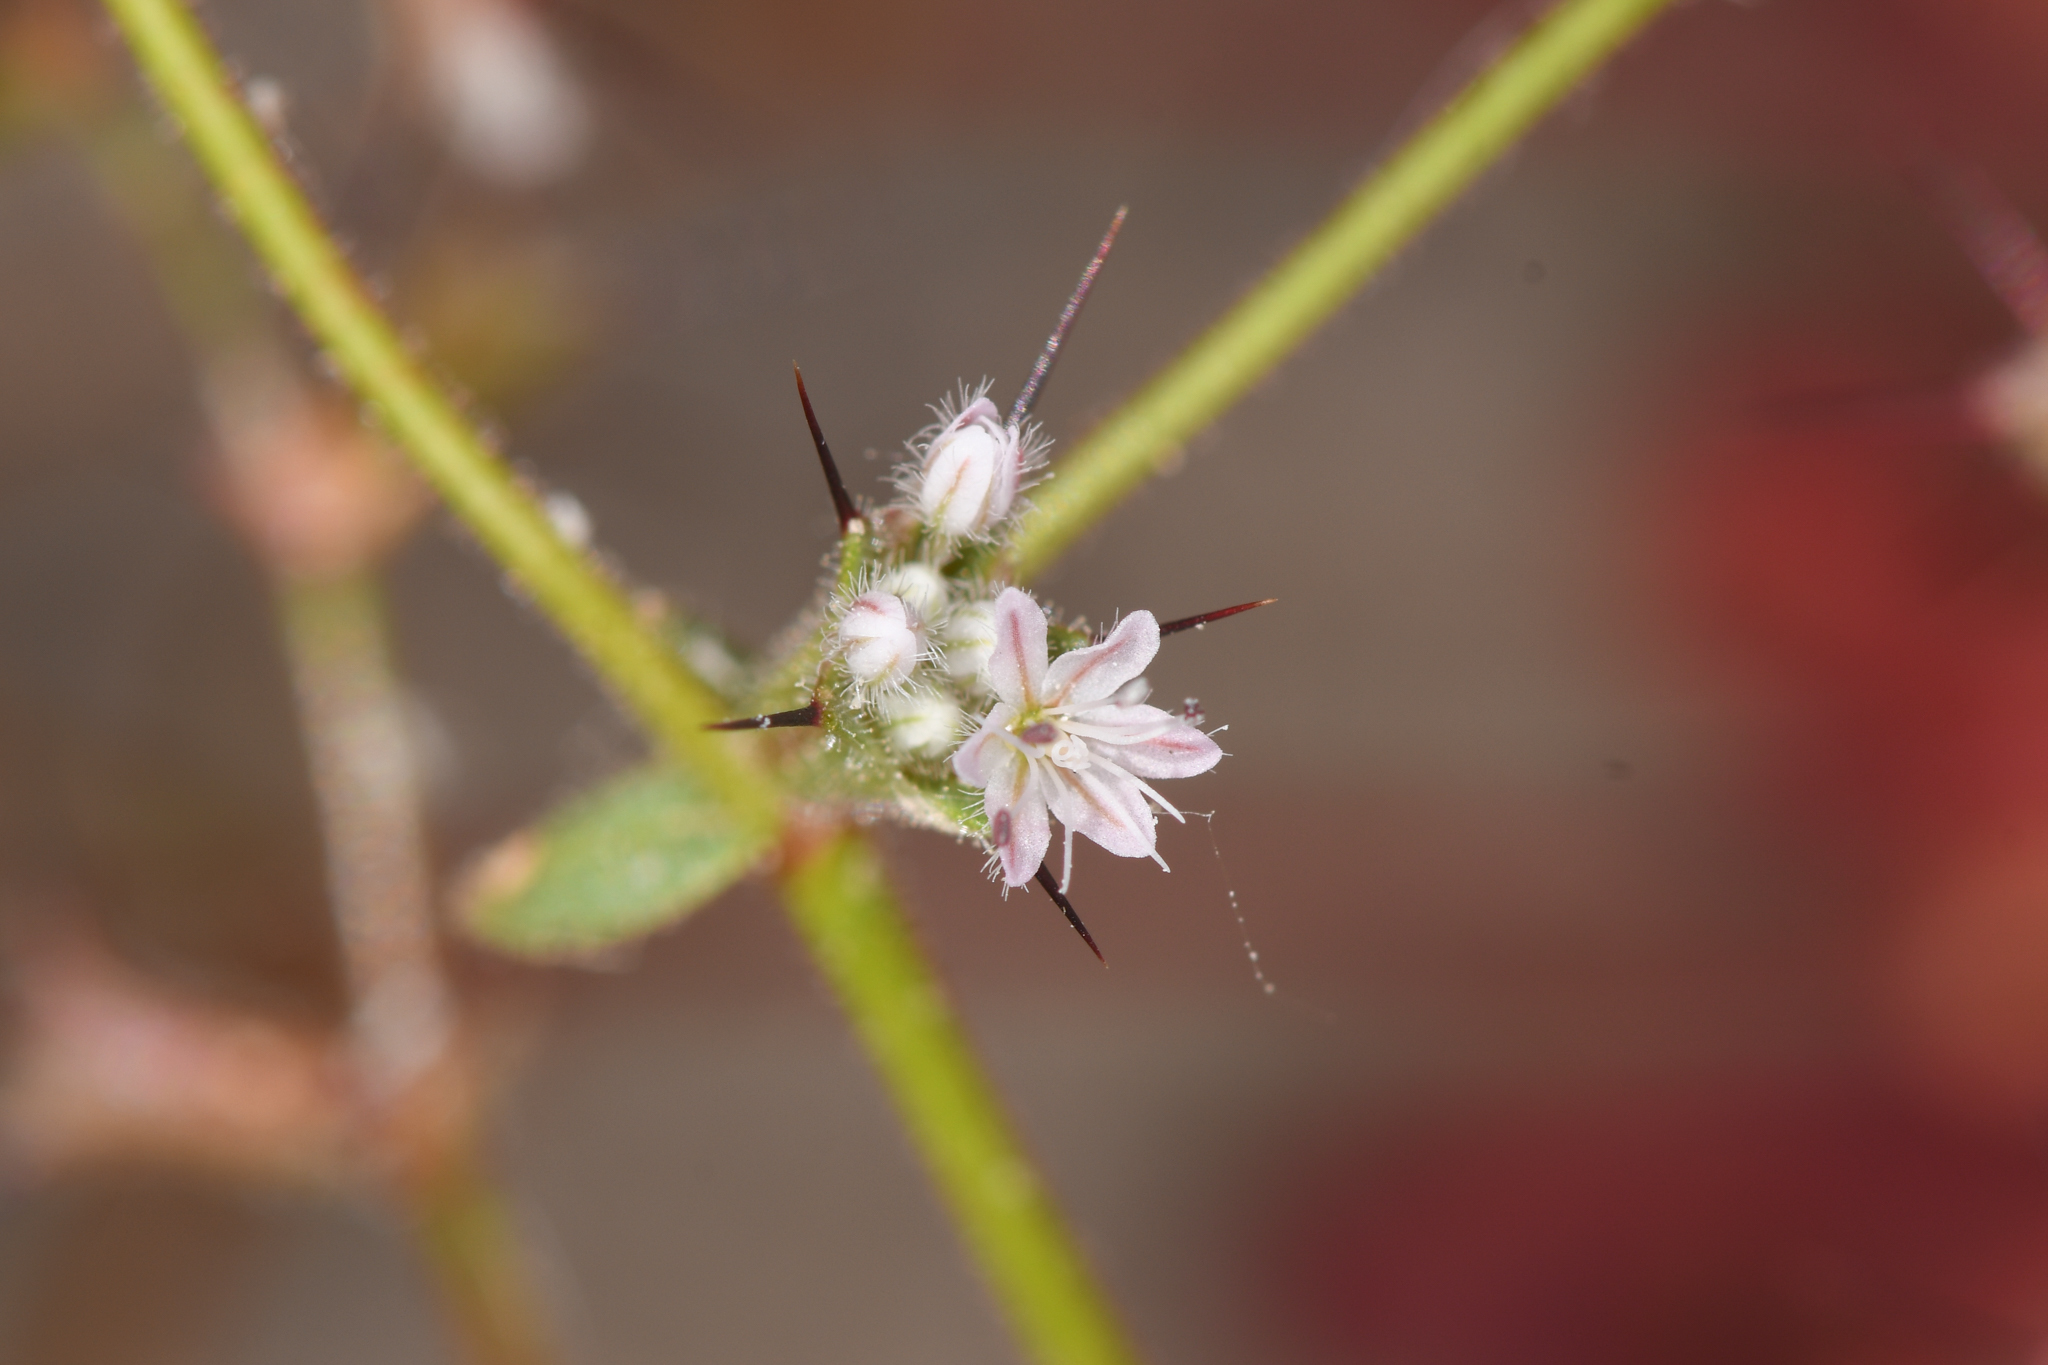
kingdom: Plantae
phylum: Tracheophyta
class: Magnoliopsida
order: Caryophyllales
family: Polygonaceae
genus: Aristocapsa
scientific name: Aristocapsa insignis
